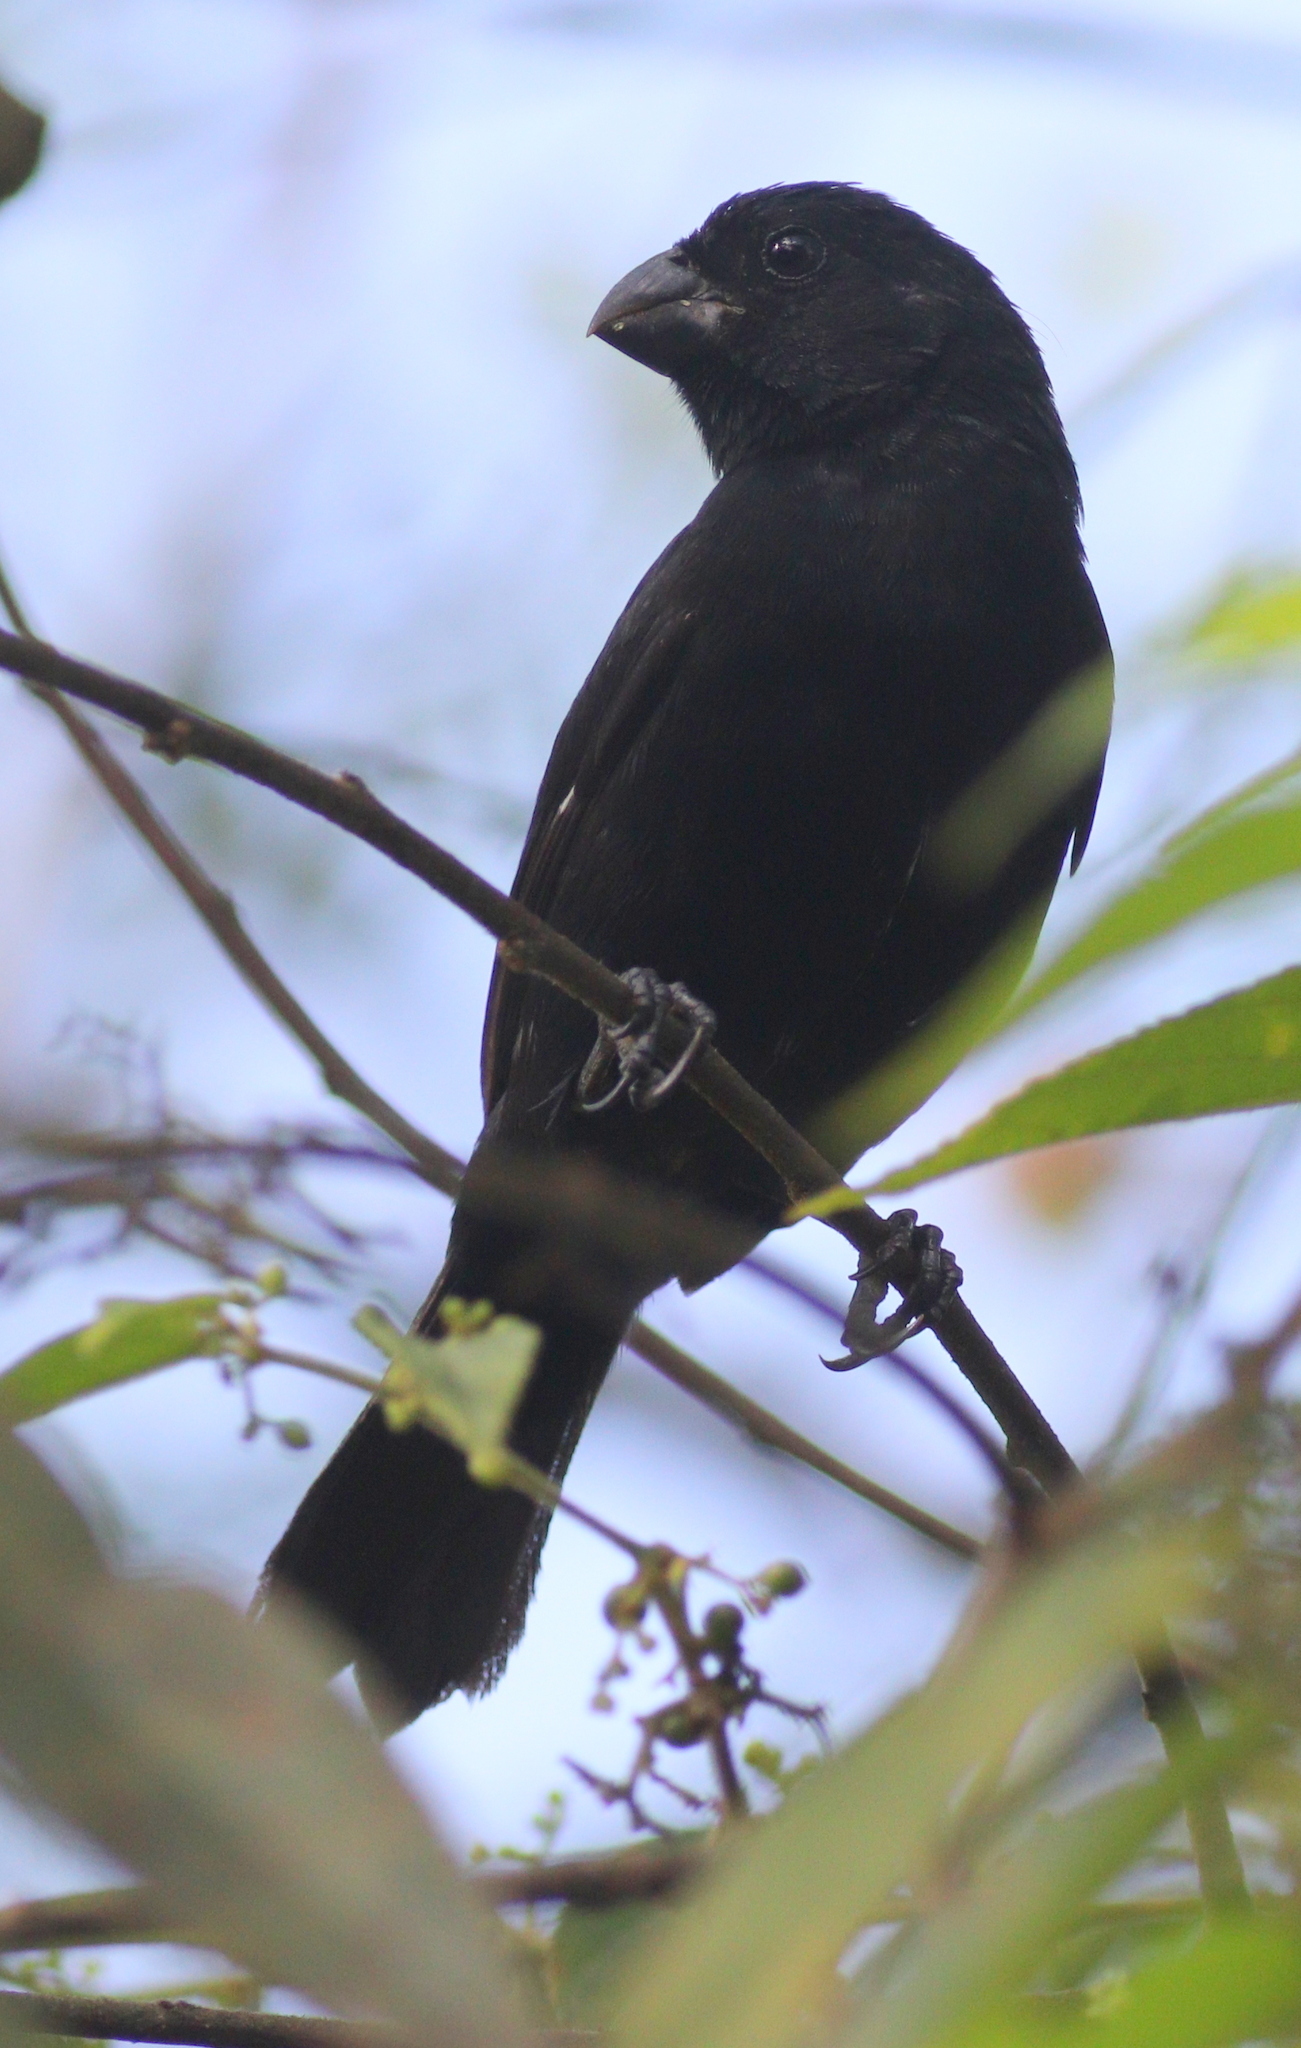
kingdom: Animalia
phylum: Chordata
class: Aves
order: Passeriformes
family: Thraupidae
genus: Sporophila
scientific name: Sporophila corvina
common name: Variable seedeater
